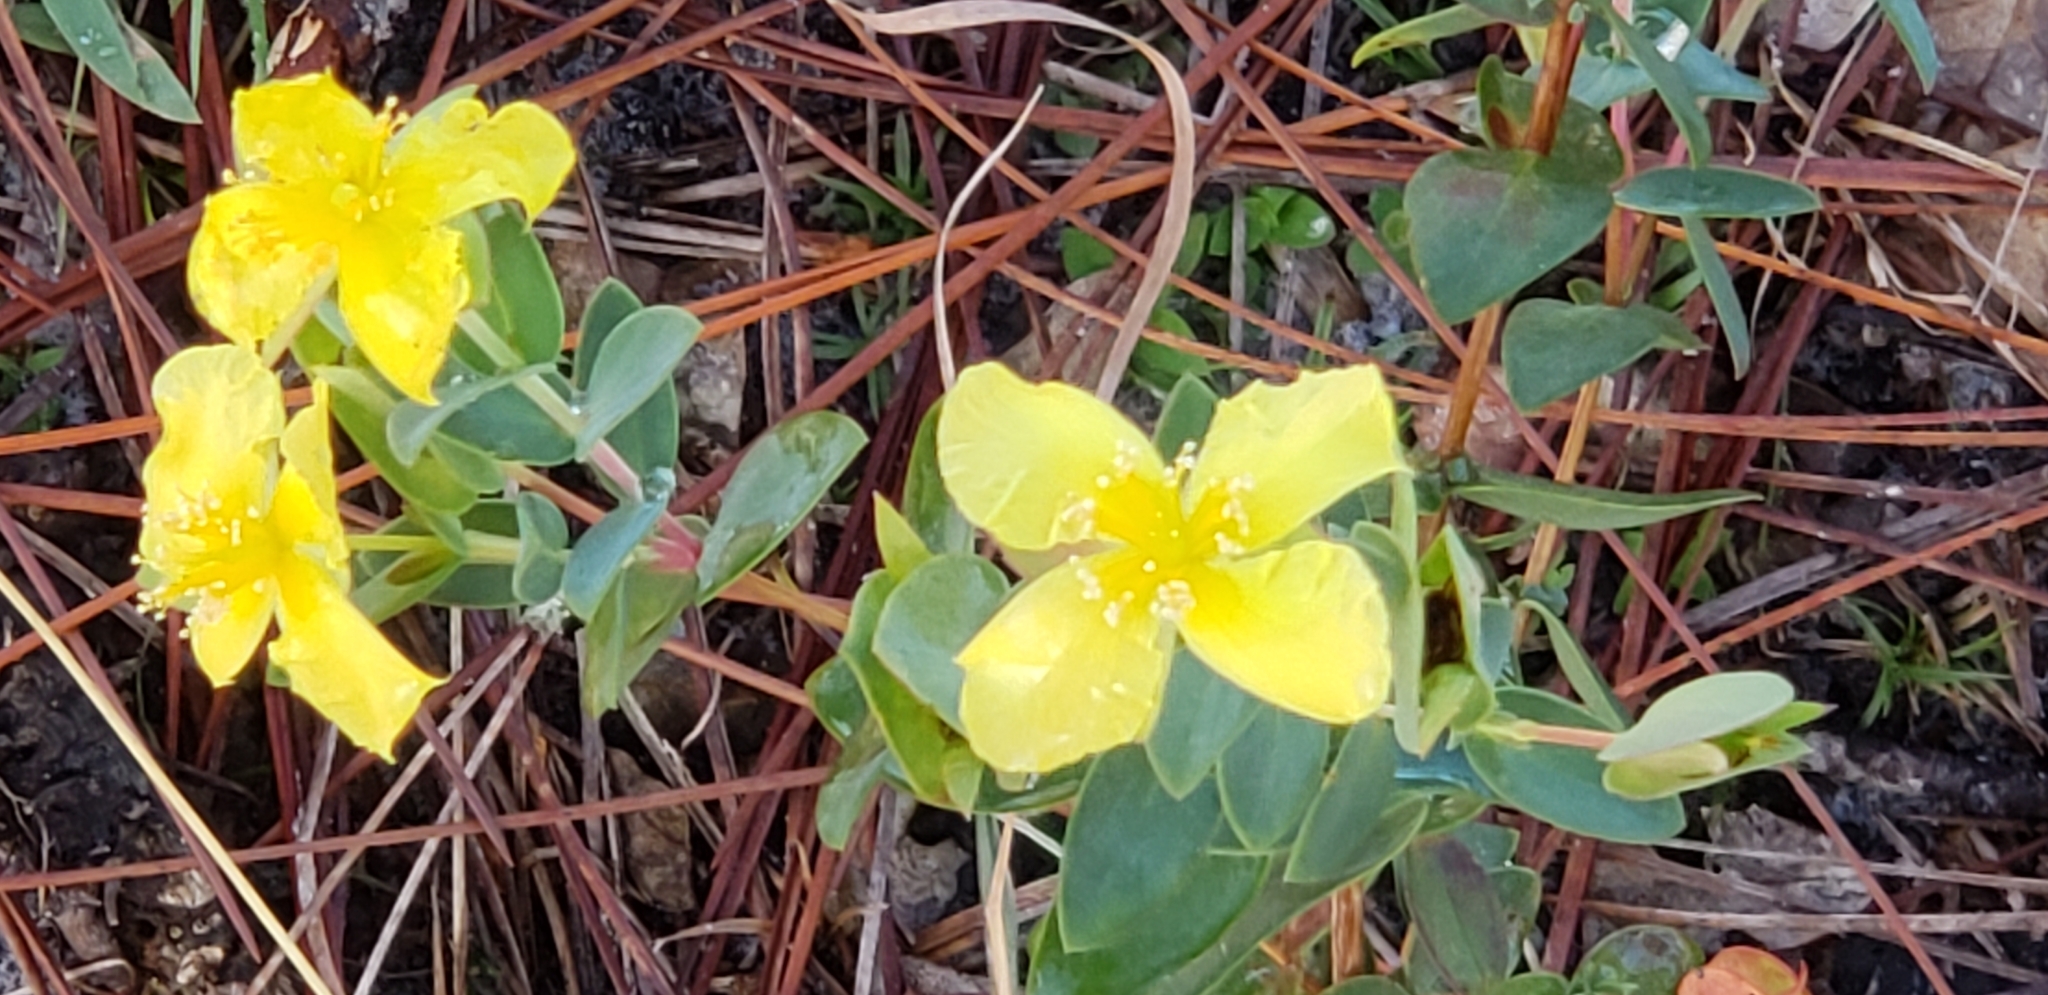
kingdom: Plantae
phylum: Tracheophyta
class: Magnoliopsida
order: Malpighiales
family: Hypericaceae
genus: Hypericum
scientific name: Hypericum tetrapetalum
